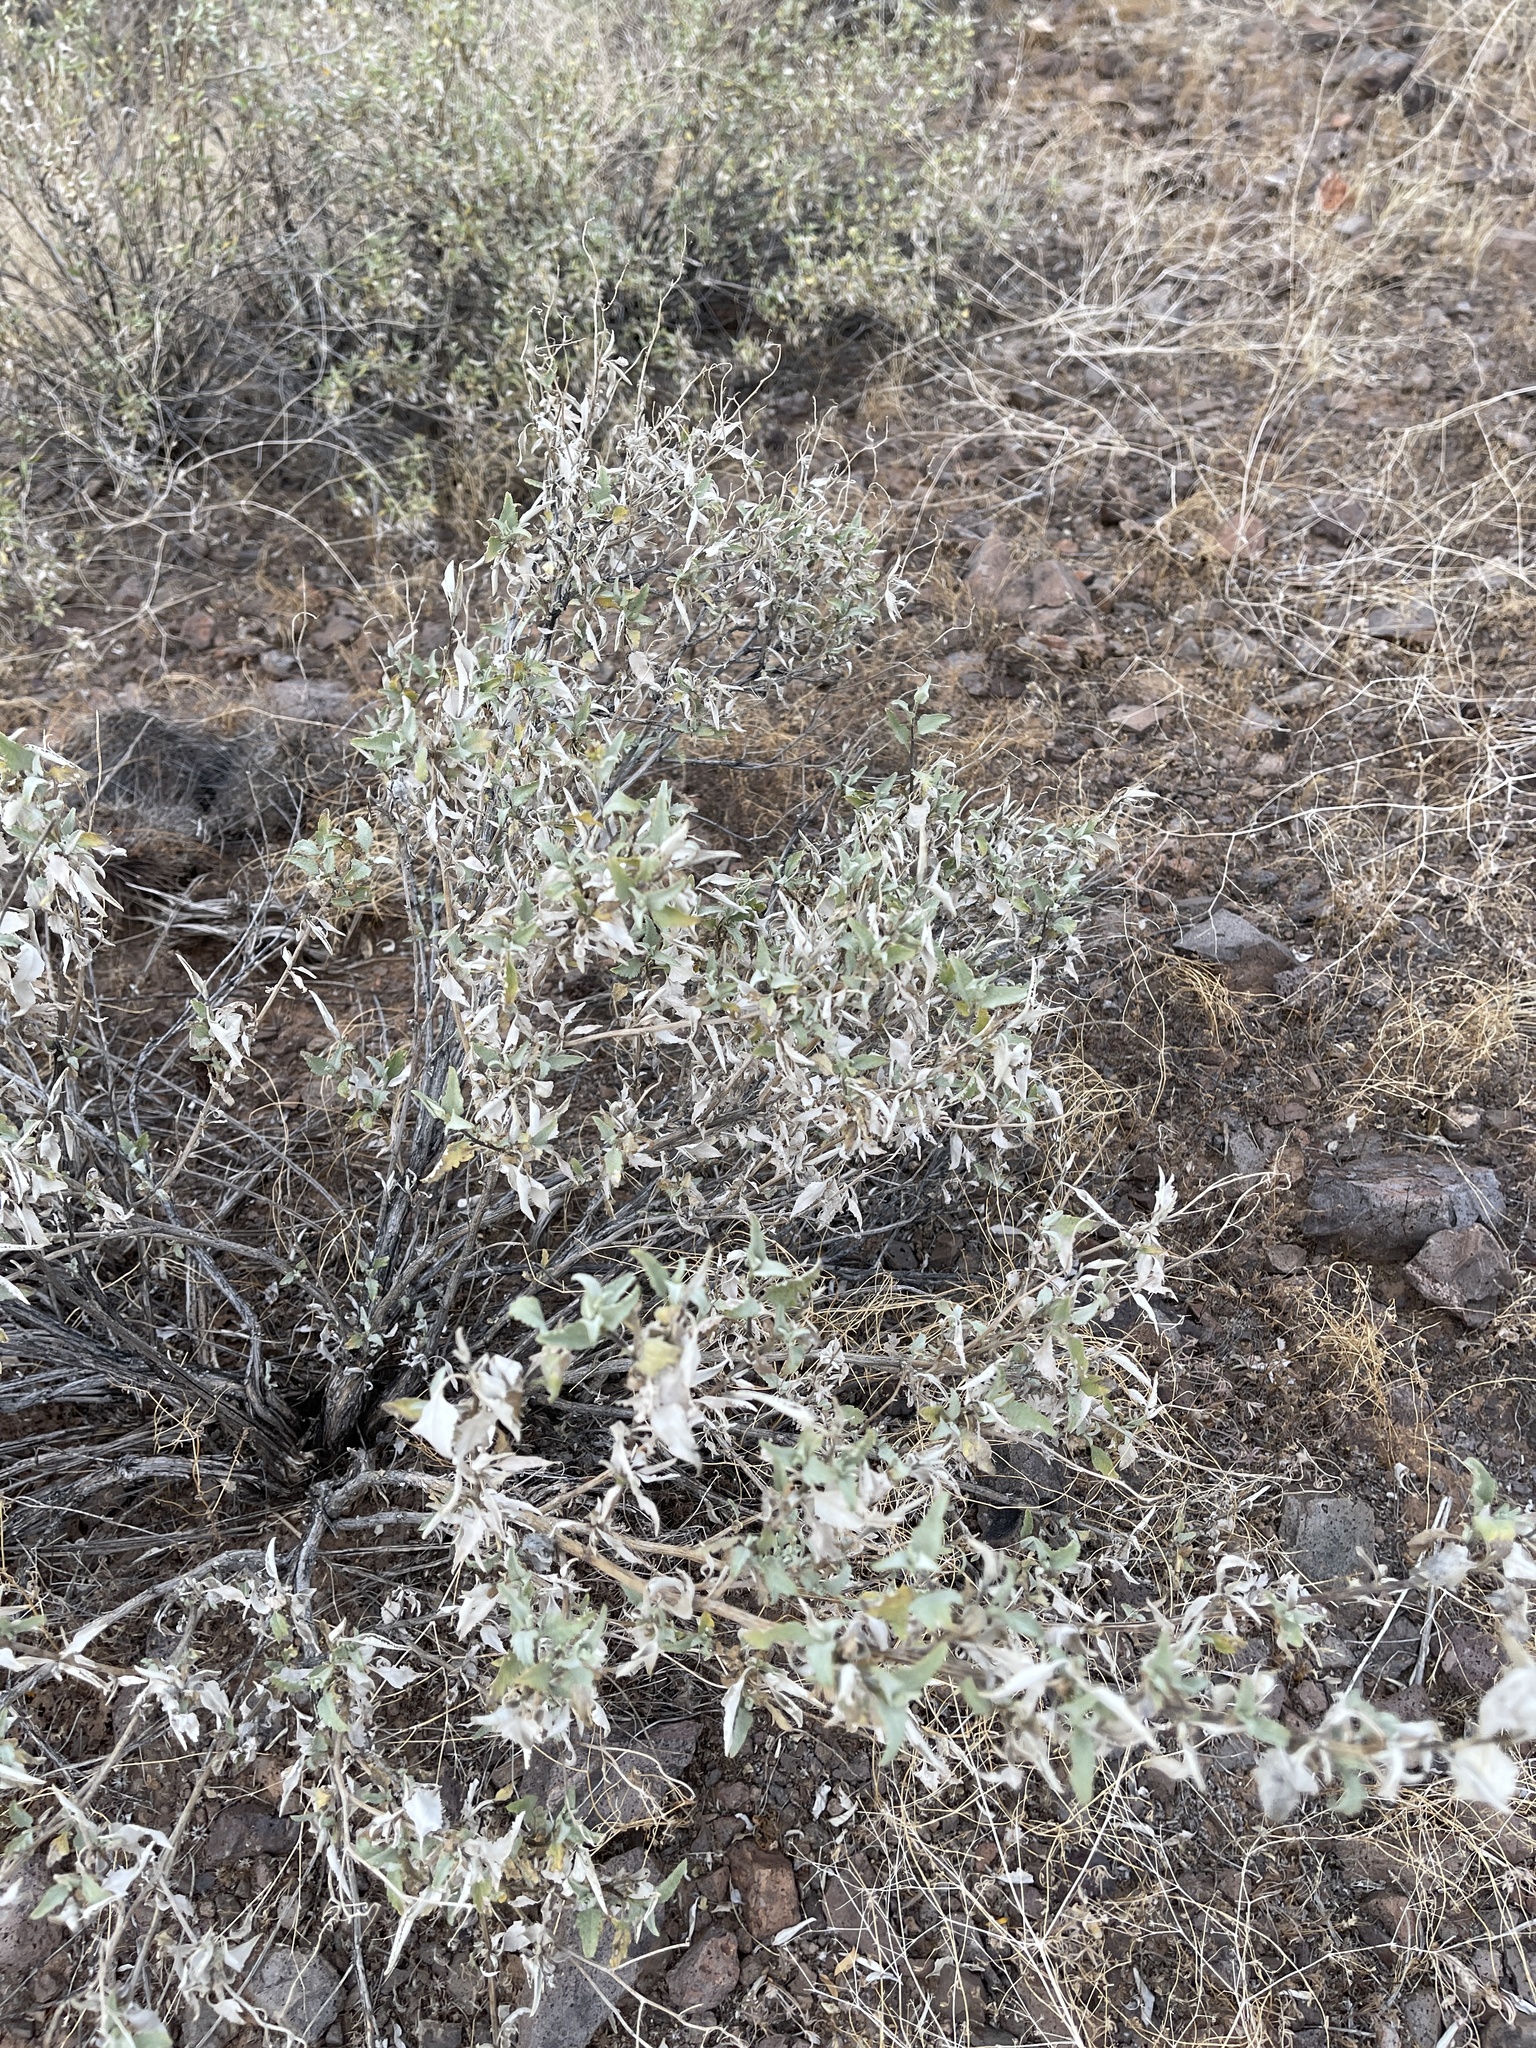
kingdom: Plantae
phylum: Tracheophyta
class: Magnoliopsida
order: Asterales
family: Asteraceae
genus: Ambrosia
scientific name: Ambrosia deltoidea
